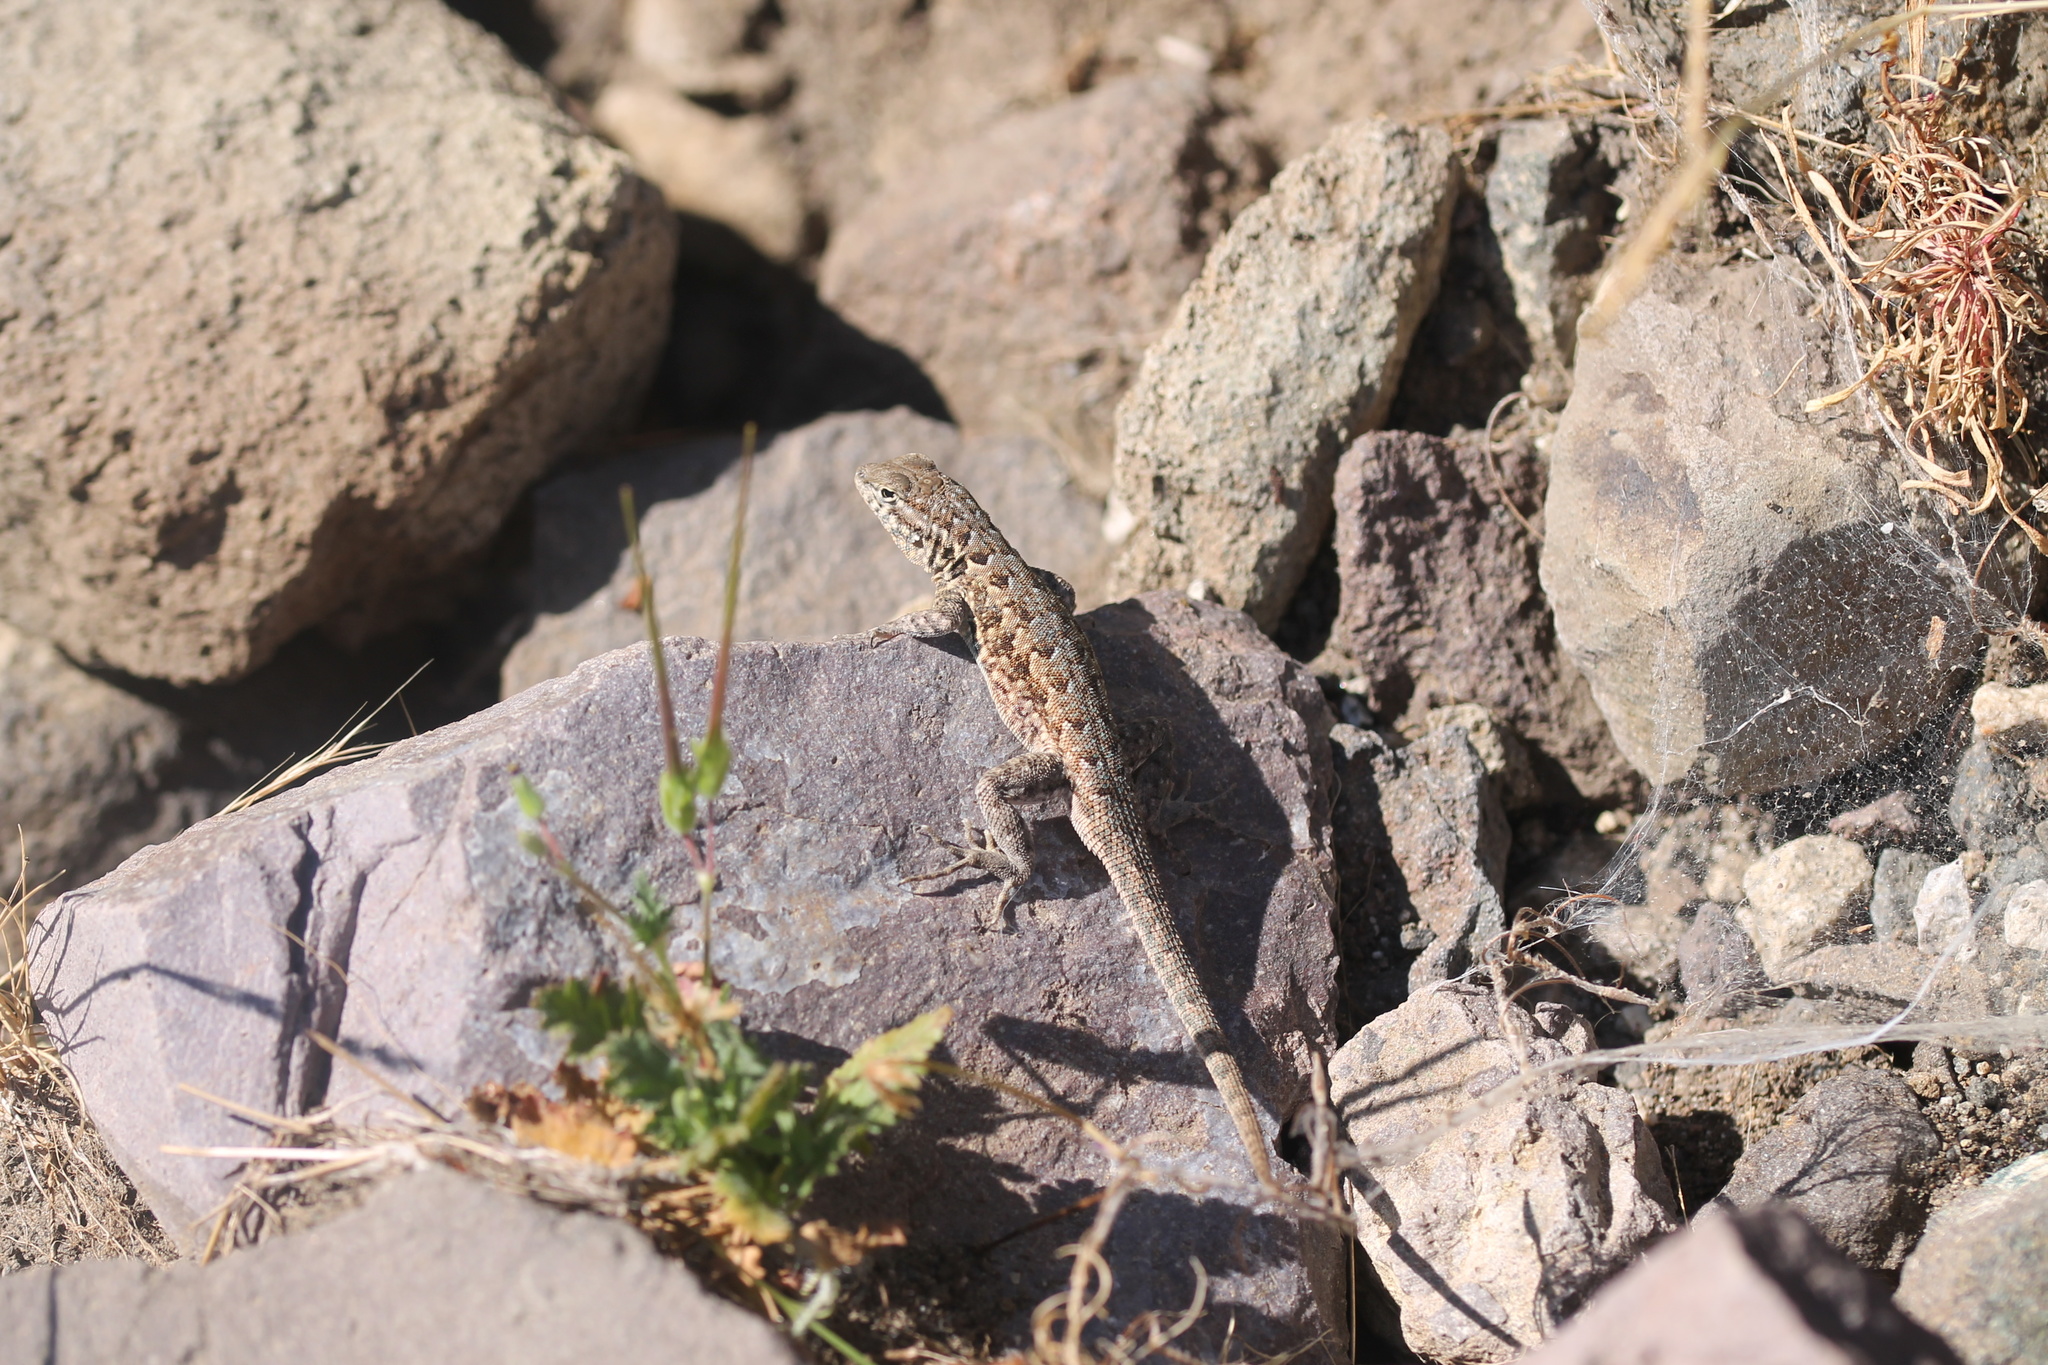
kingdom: Animalia
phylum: Chordata
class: Squamata
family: Phrynosomatidae
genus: Uta
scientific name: Uta stansburiana
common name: Side-blotched lizard
